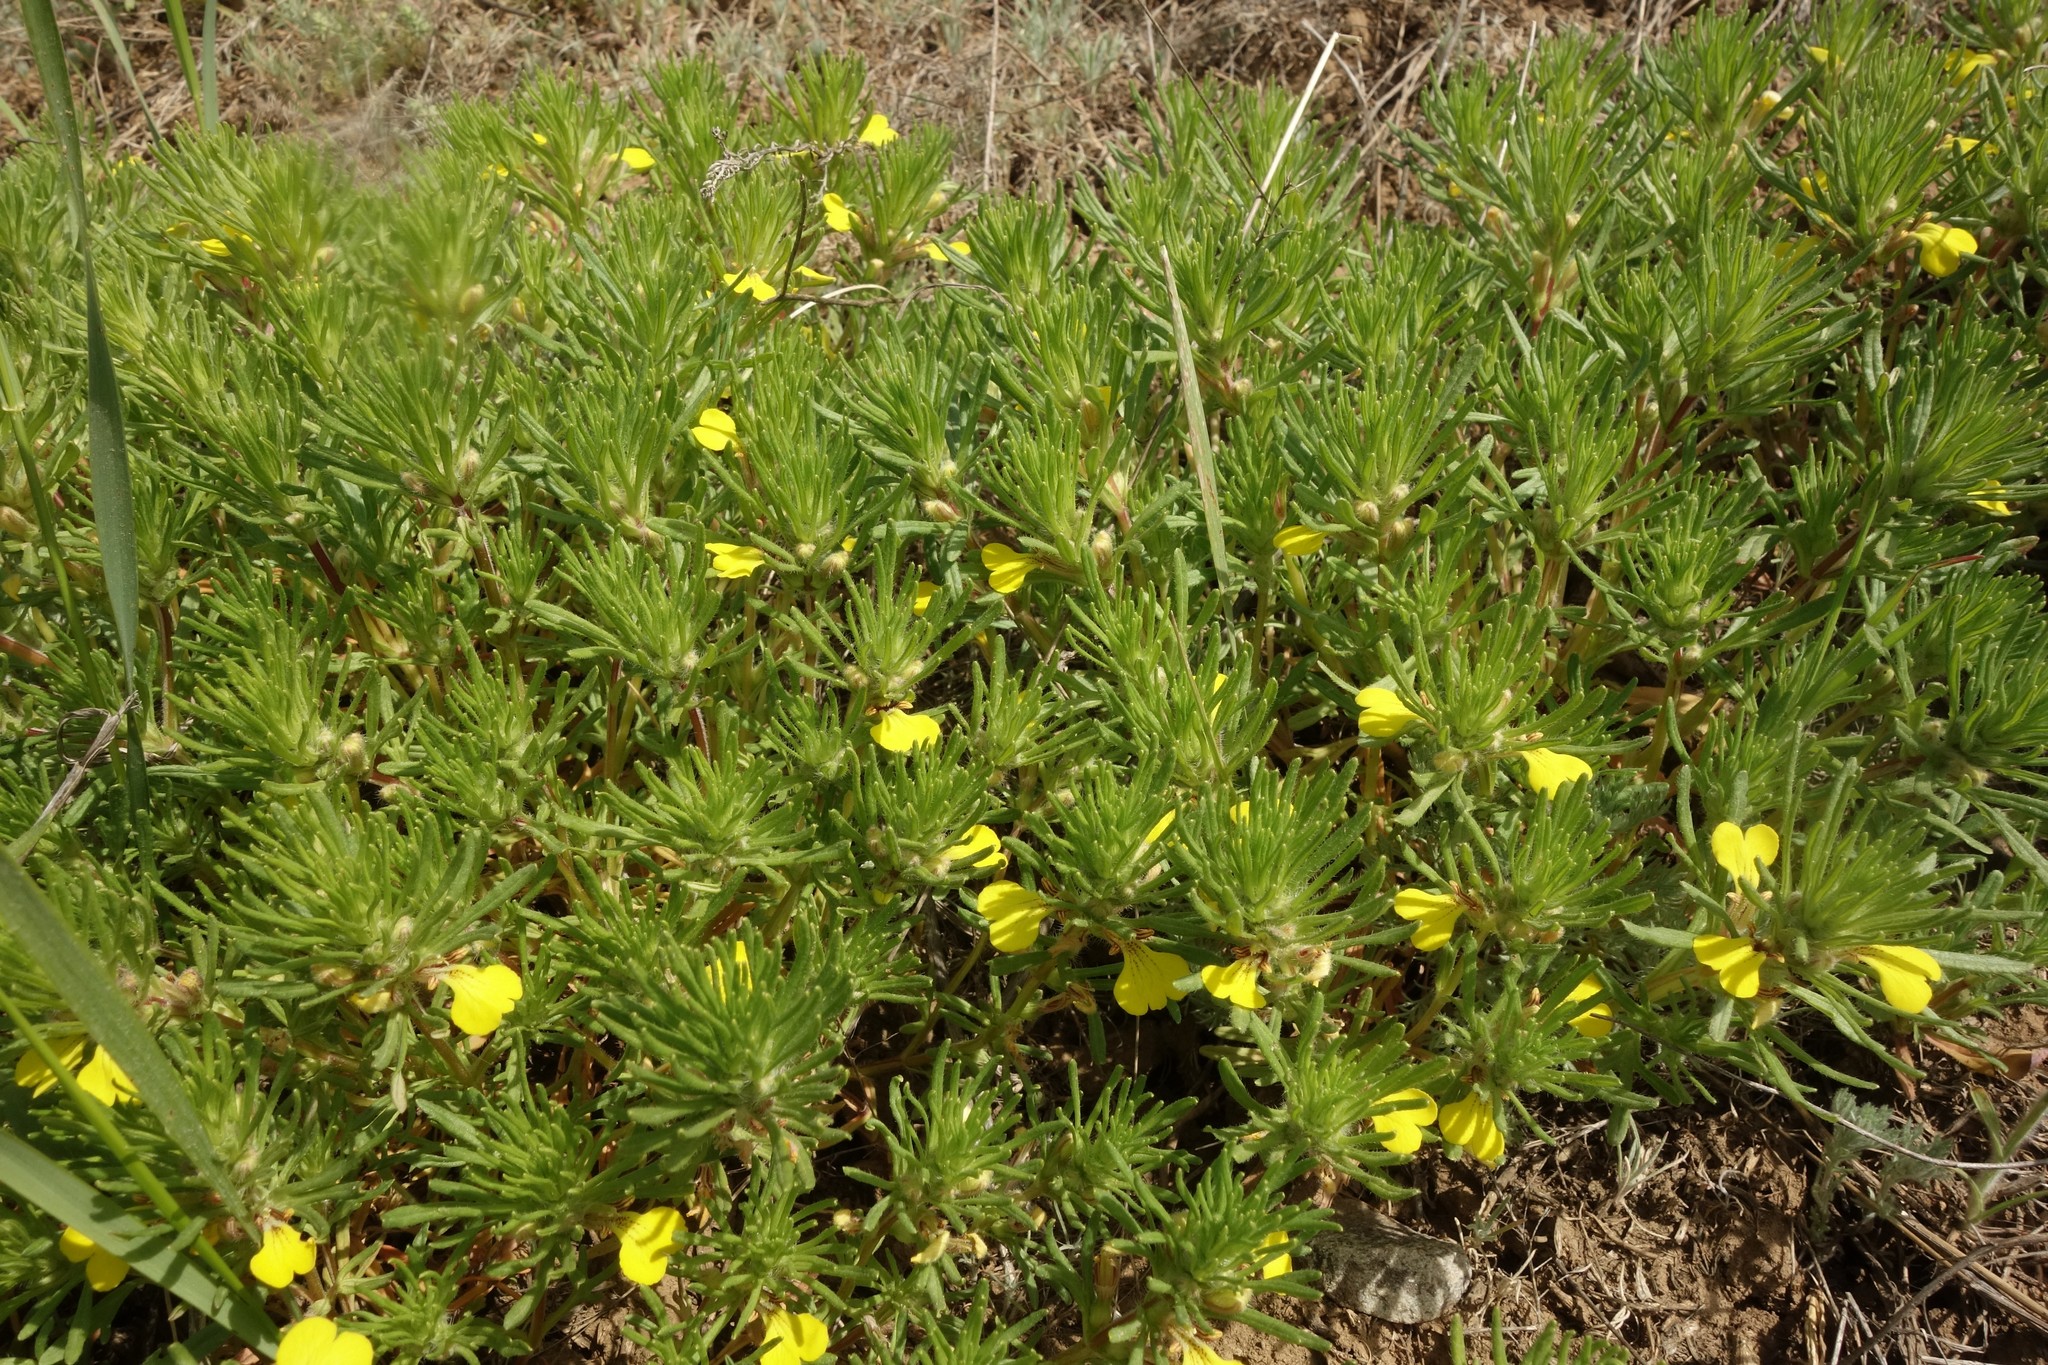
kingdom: Plantae
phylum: Tracheophyta
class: Magnoliopsida
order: Lamiales
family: Lamiaceae
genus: Ajuga
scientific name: Ajuga chamaepitys
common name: Ground-pine
